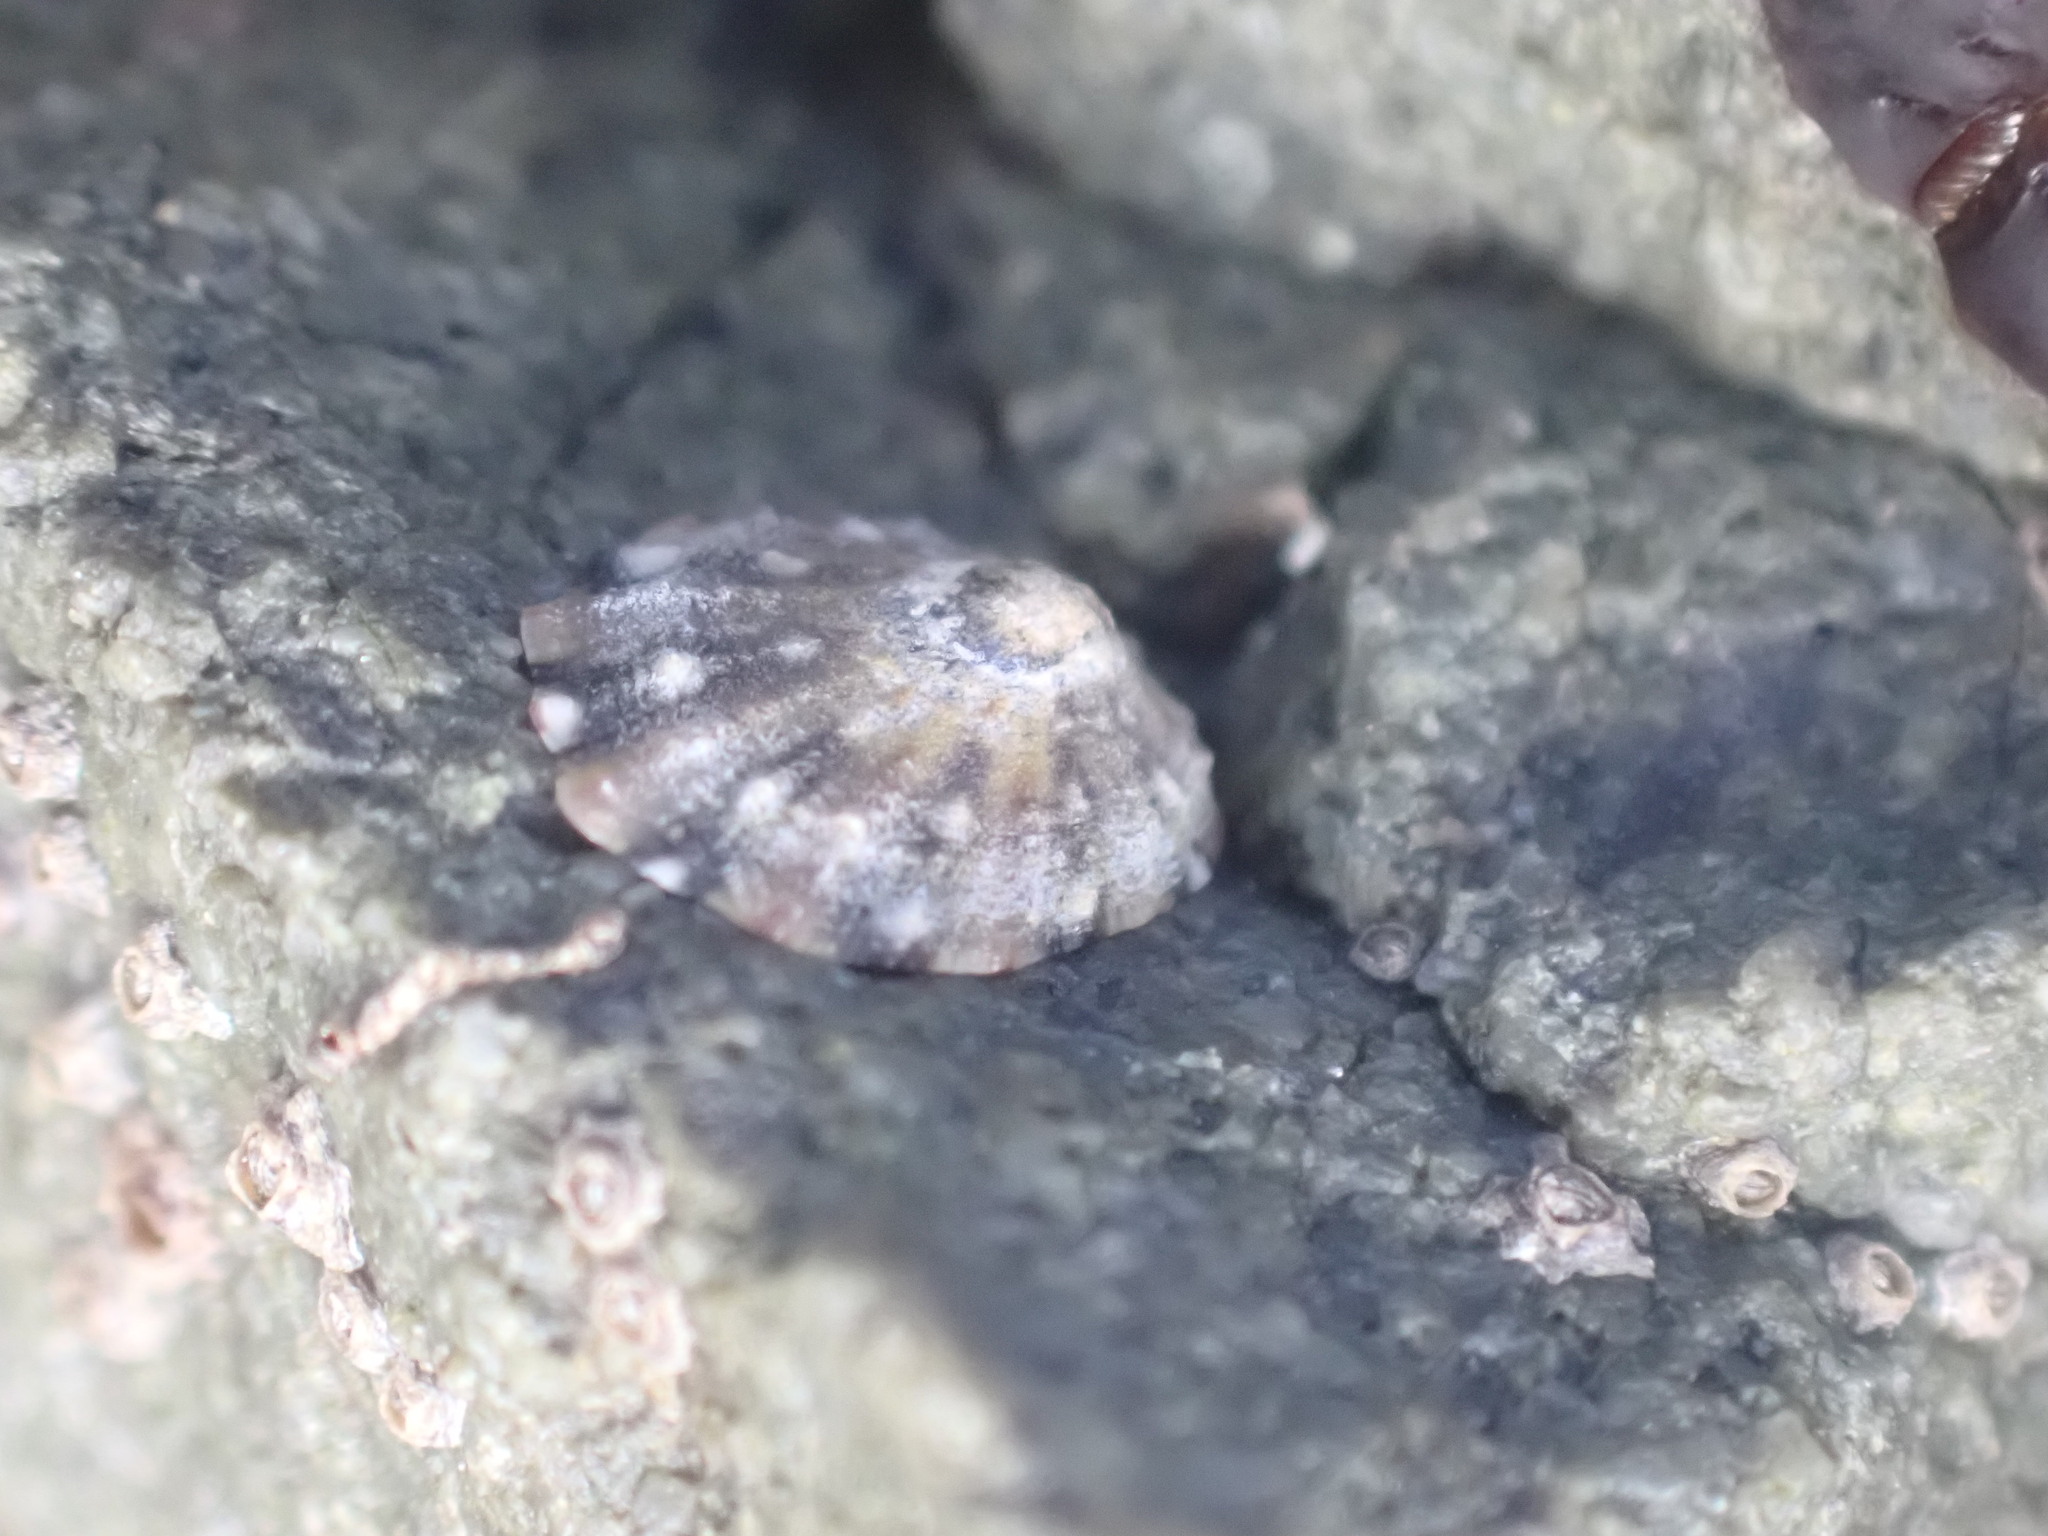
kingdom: Animalia
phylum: Mollusca
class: Gastropoda
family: Nacellidae
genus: Cellana
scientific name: Cellana ornata
